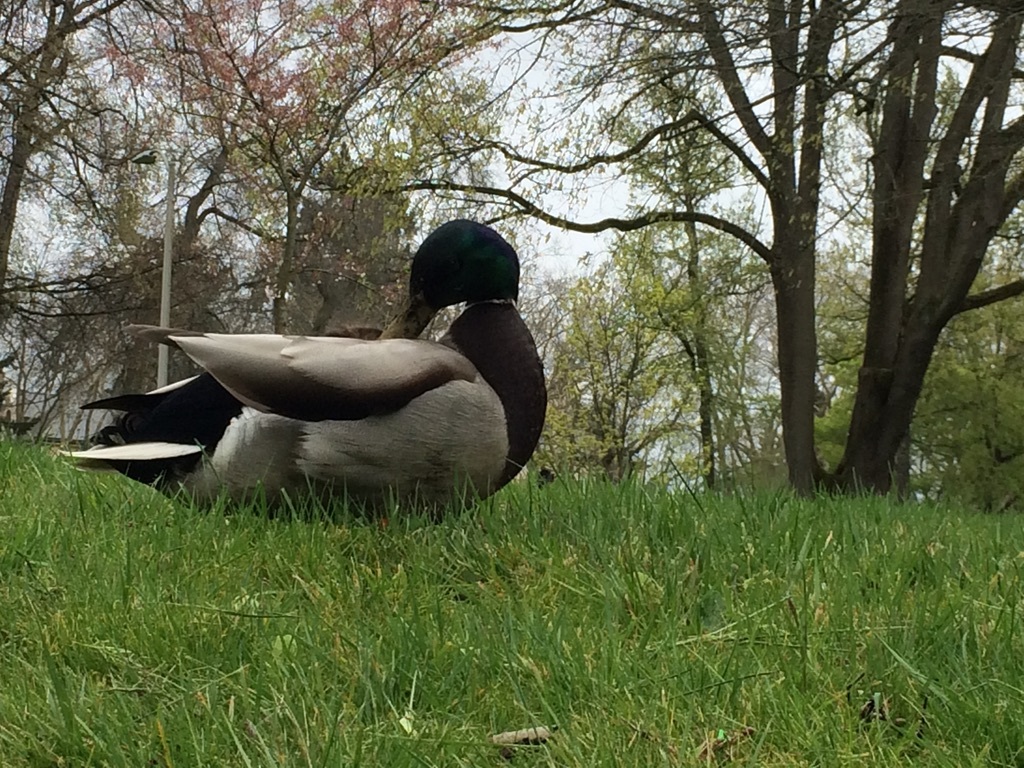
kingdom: Animalia
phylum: Chordata
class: Aves
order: Anseriformes
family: Anatidae
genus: Anas
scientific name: Anas platyrhynchos
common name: Mallard
